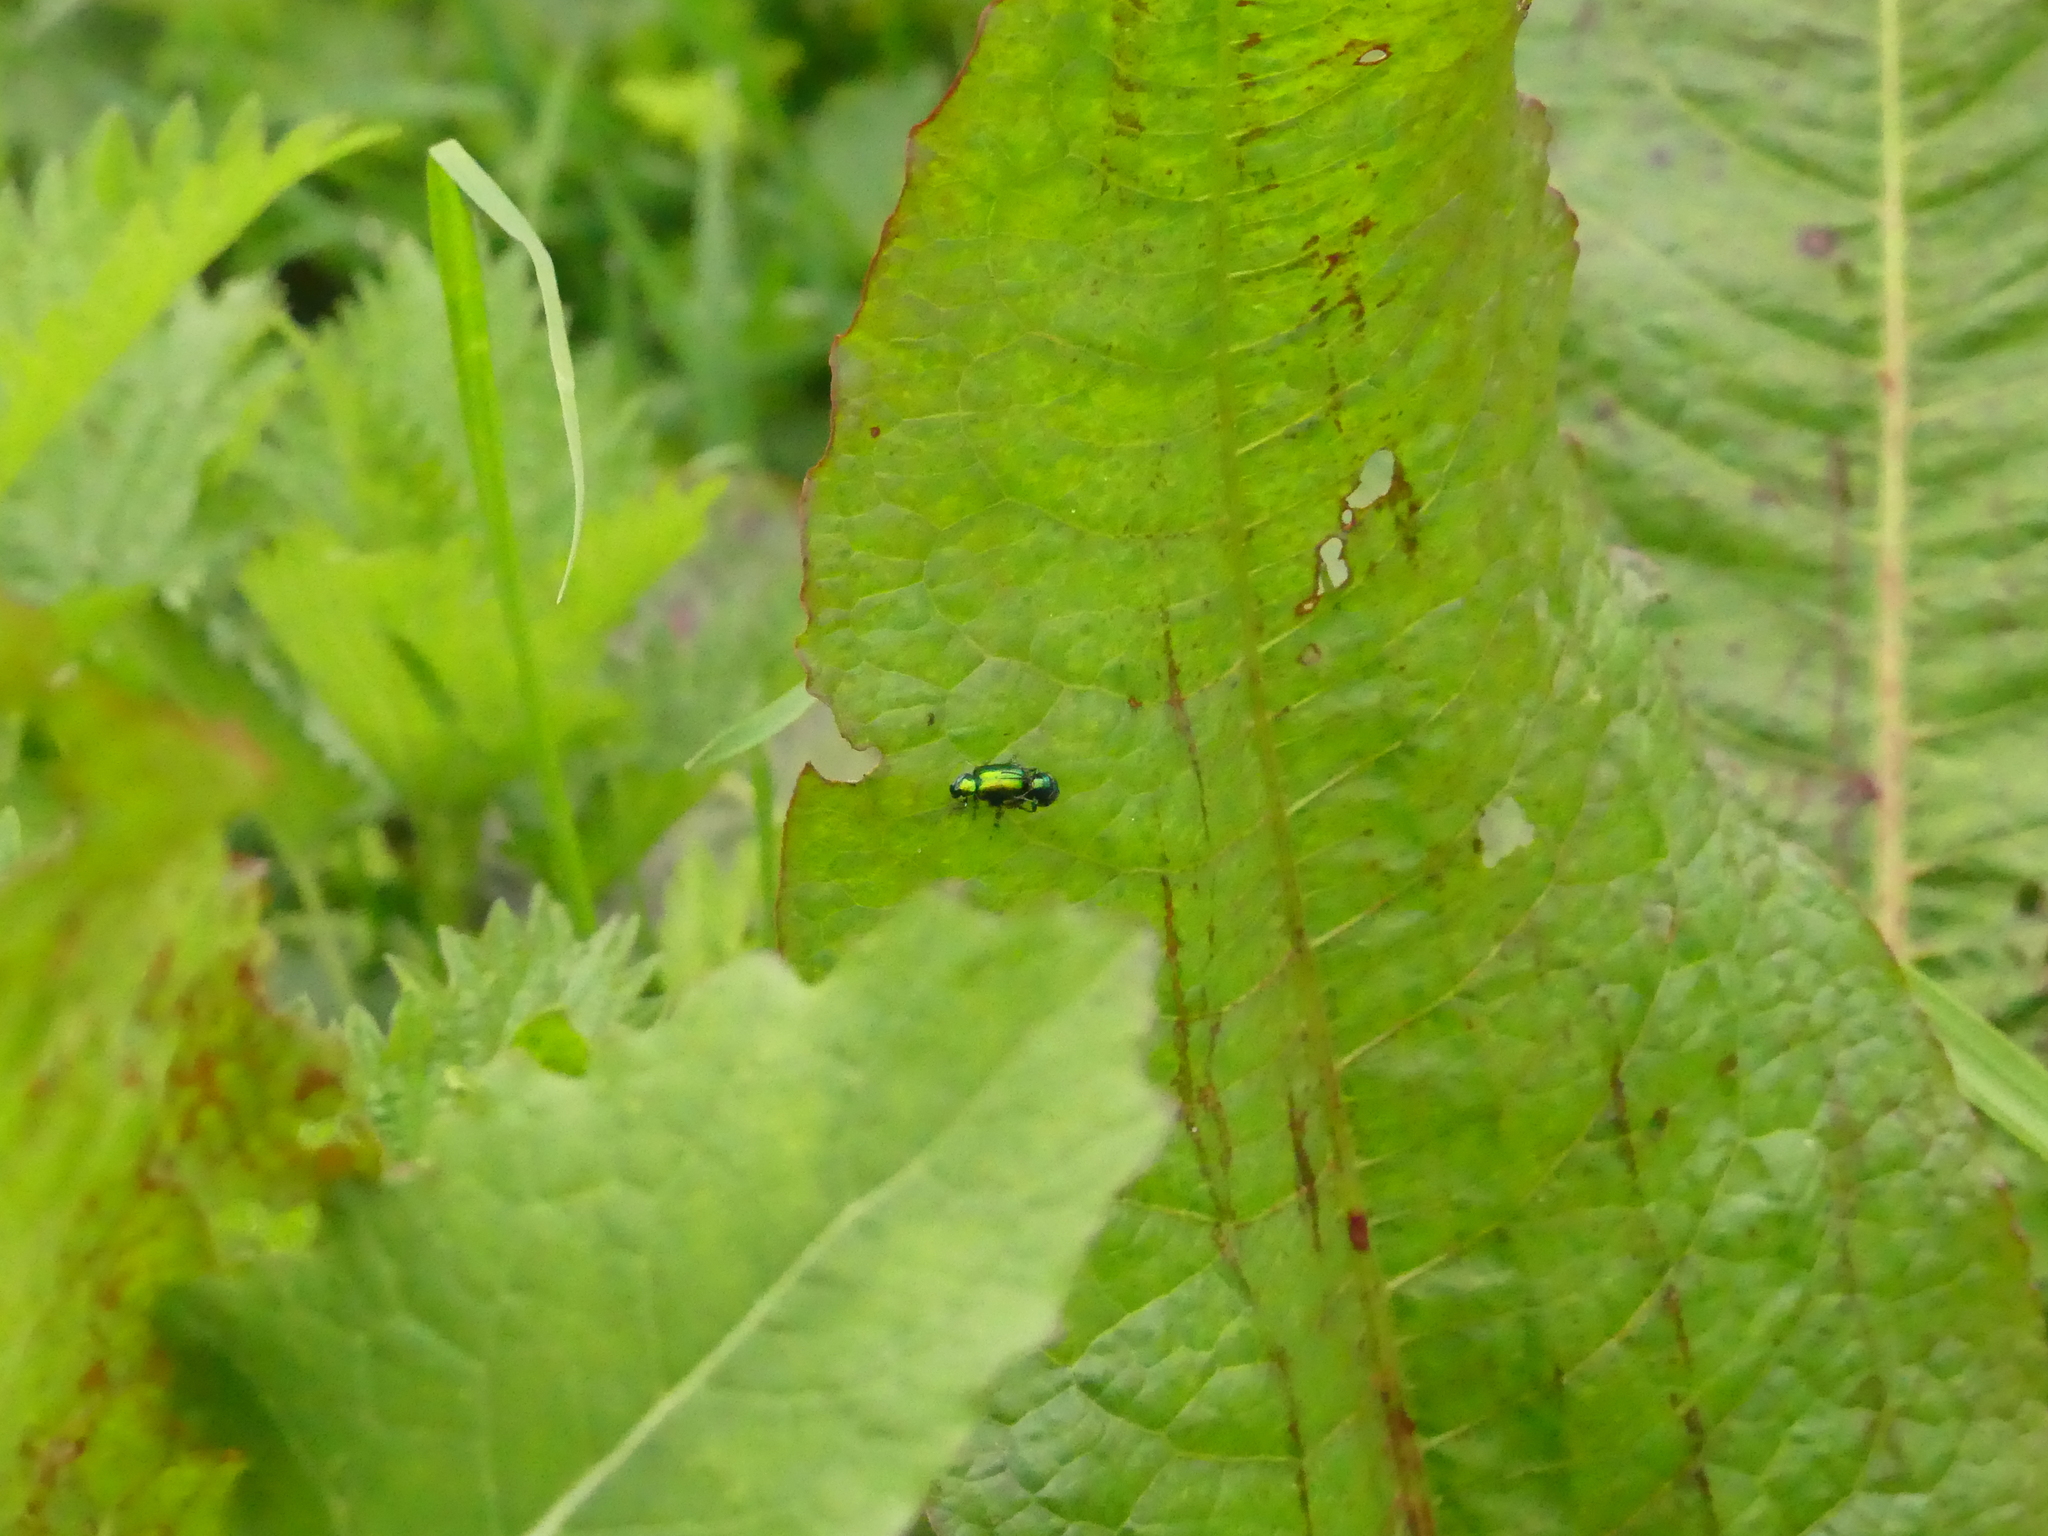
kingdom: Animalia
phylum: Arthropoda
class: Insecta
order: Coleoptera
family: Chrysomelidae
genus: Gastrophysa
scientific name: Gastrophysa viridula
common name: Green dock beetle
